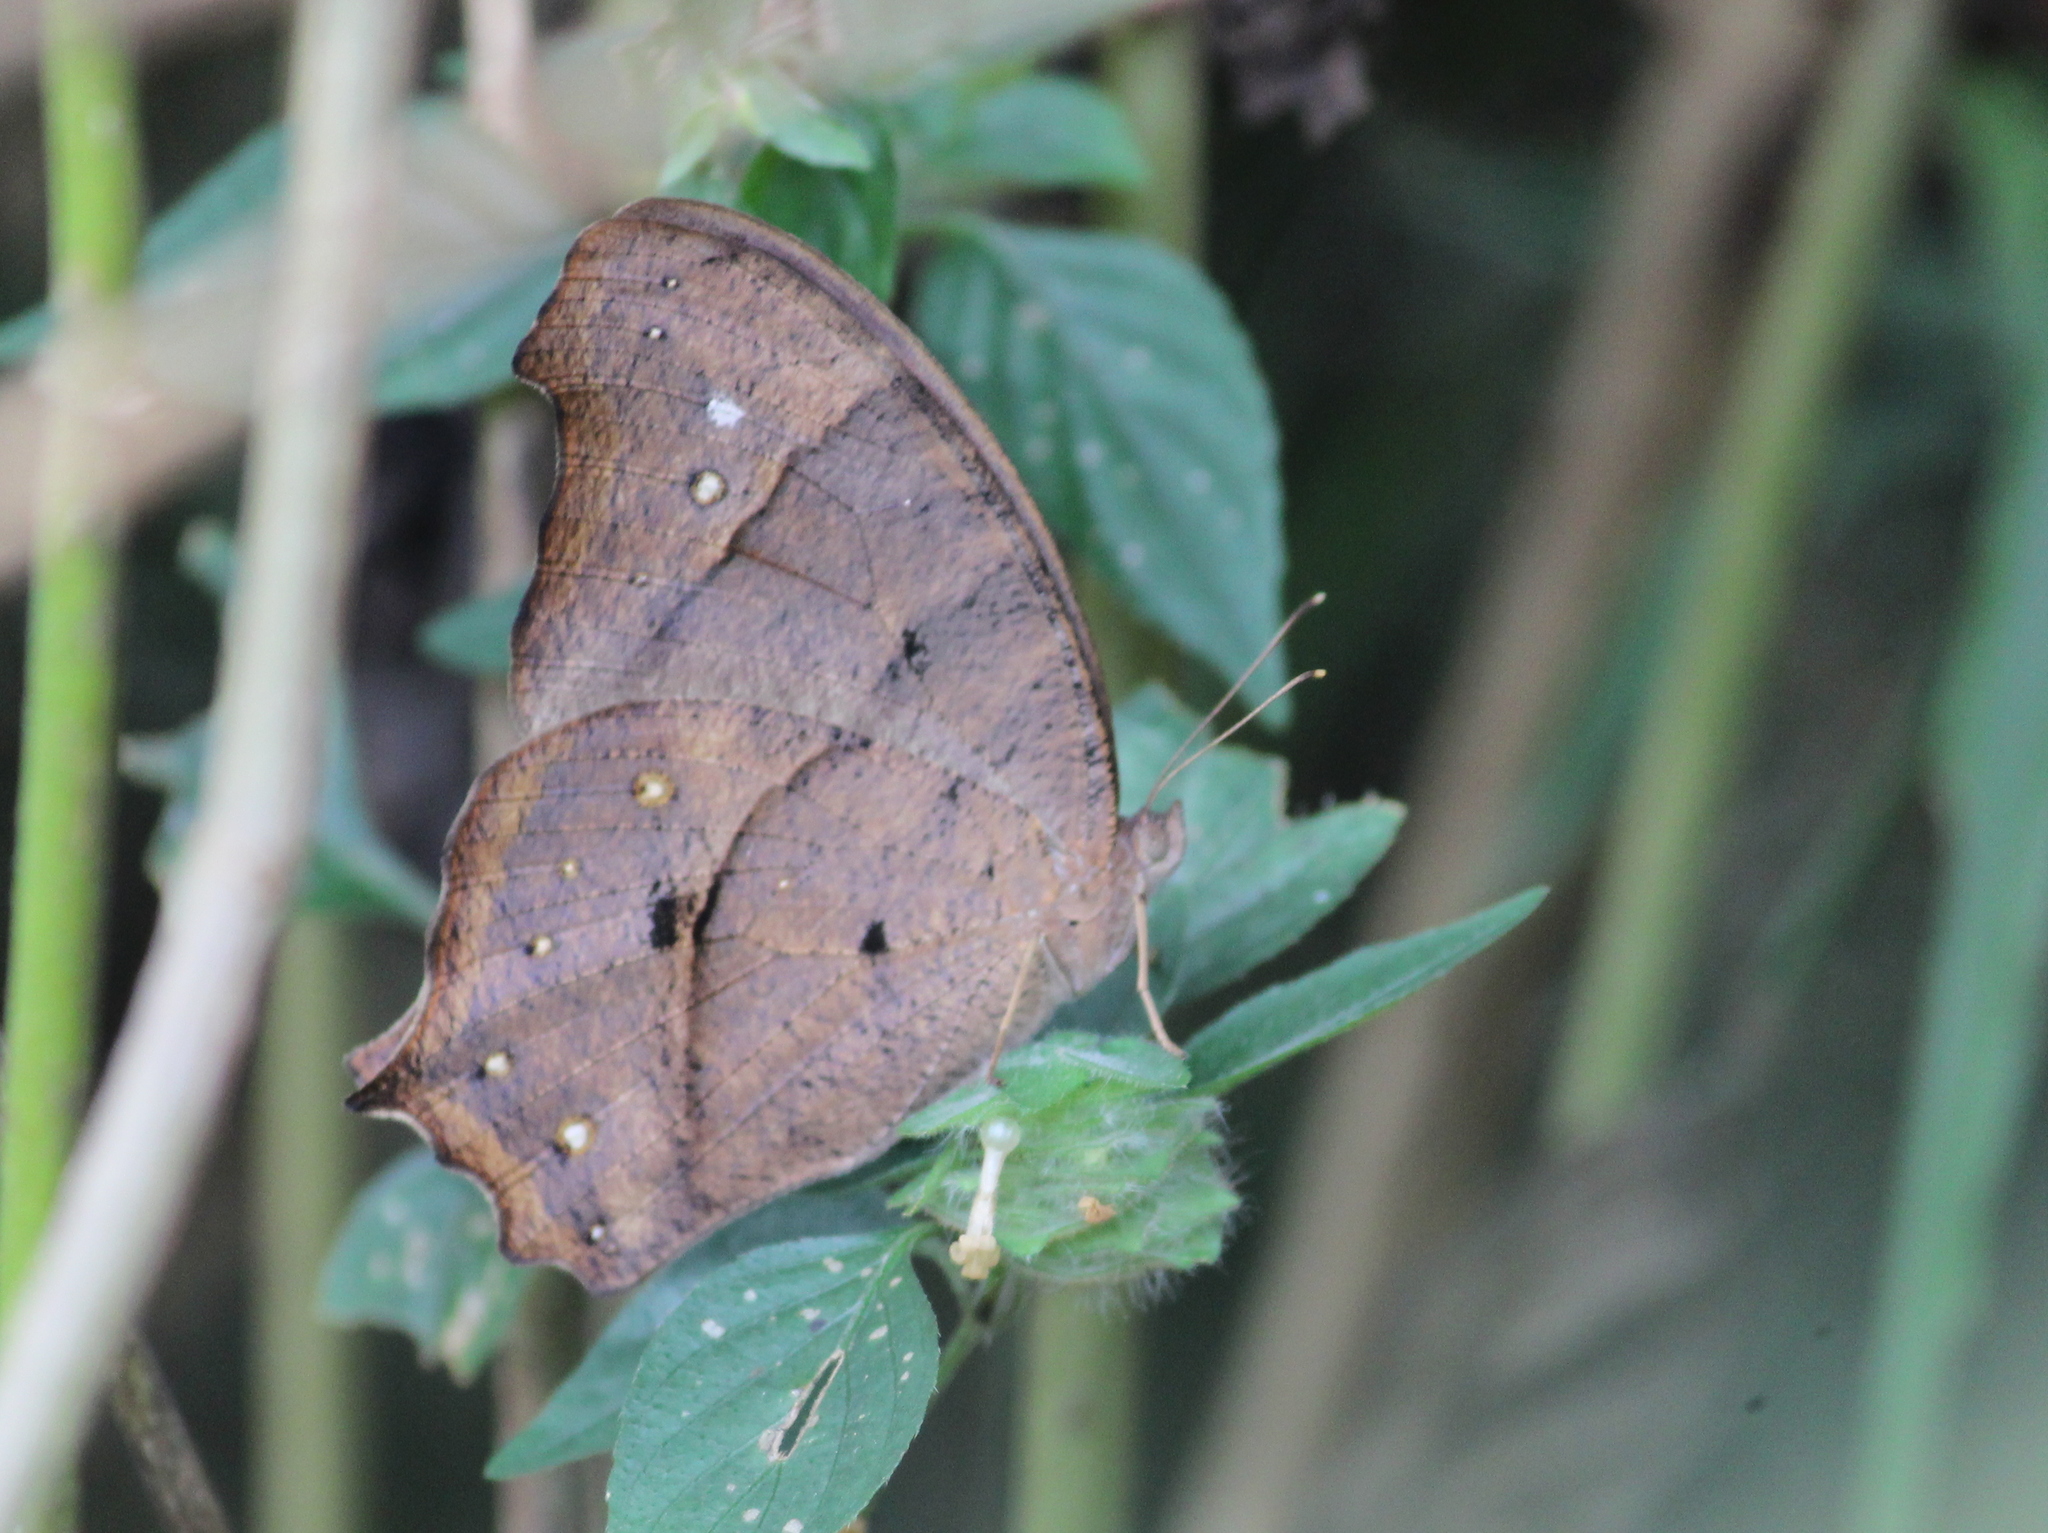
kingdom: Animalia
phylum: Arthropoda
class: Insecta
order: Lepidoptera
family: Nymphalidae
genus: Melanitis
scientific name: Melanitis leda
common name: Twilight brown
